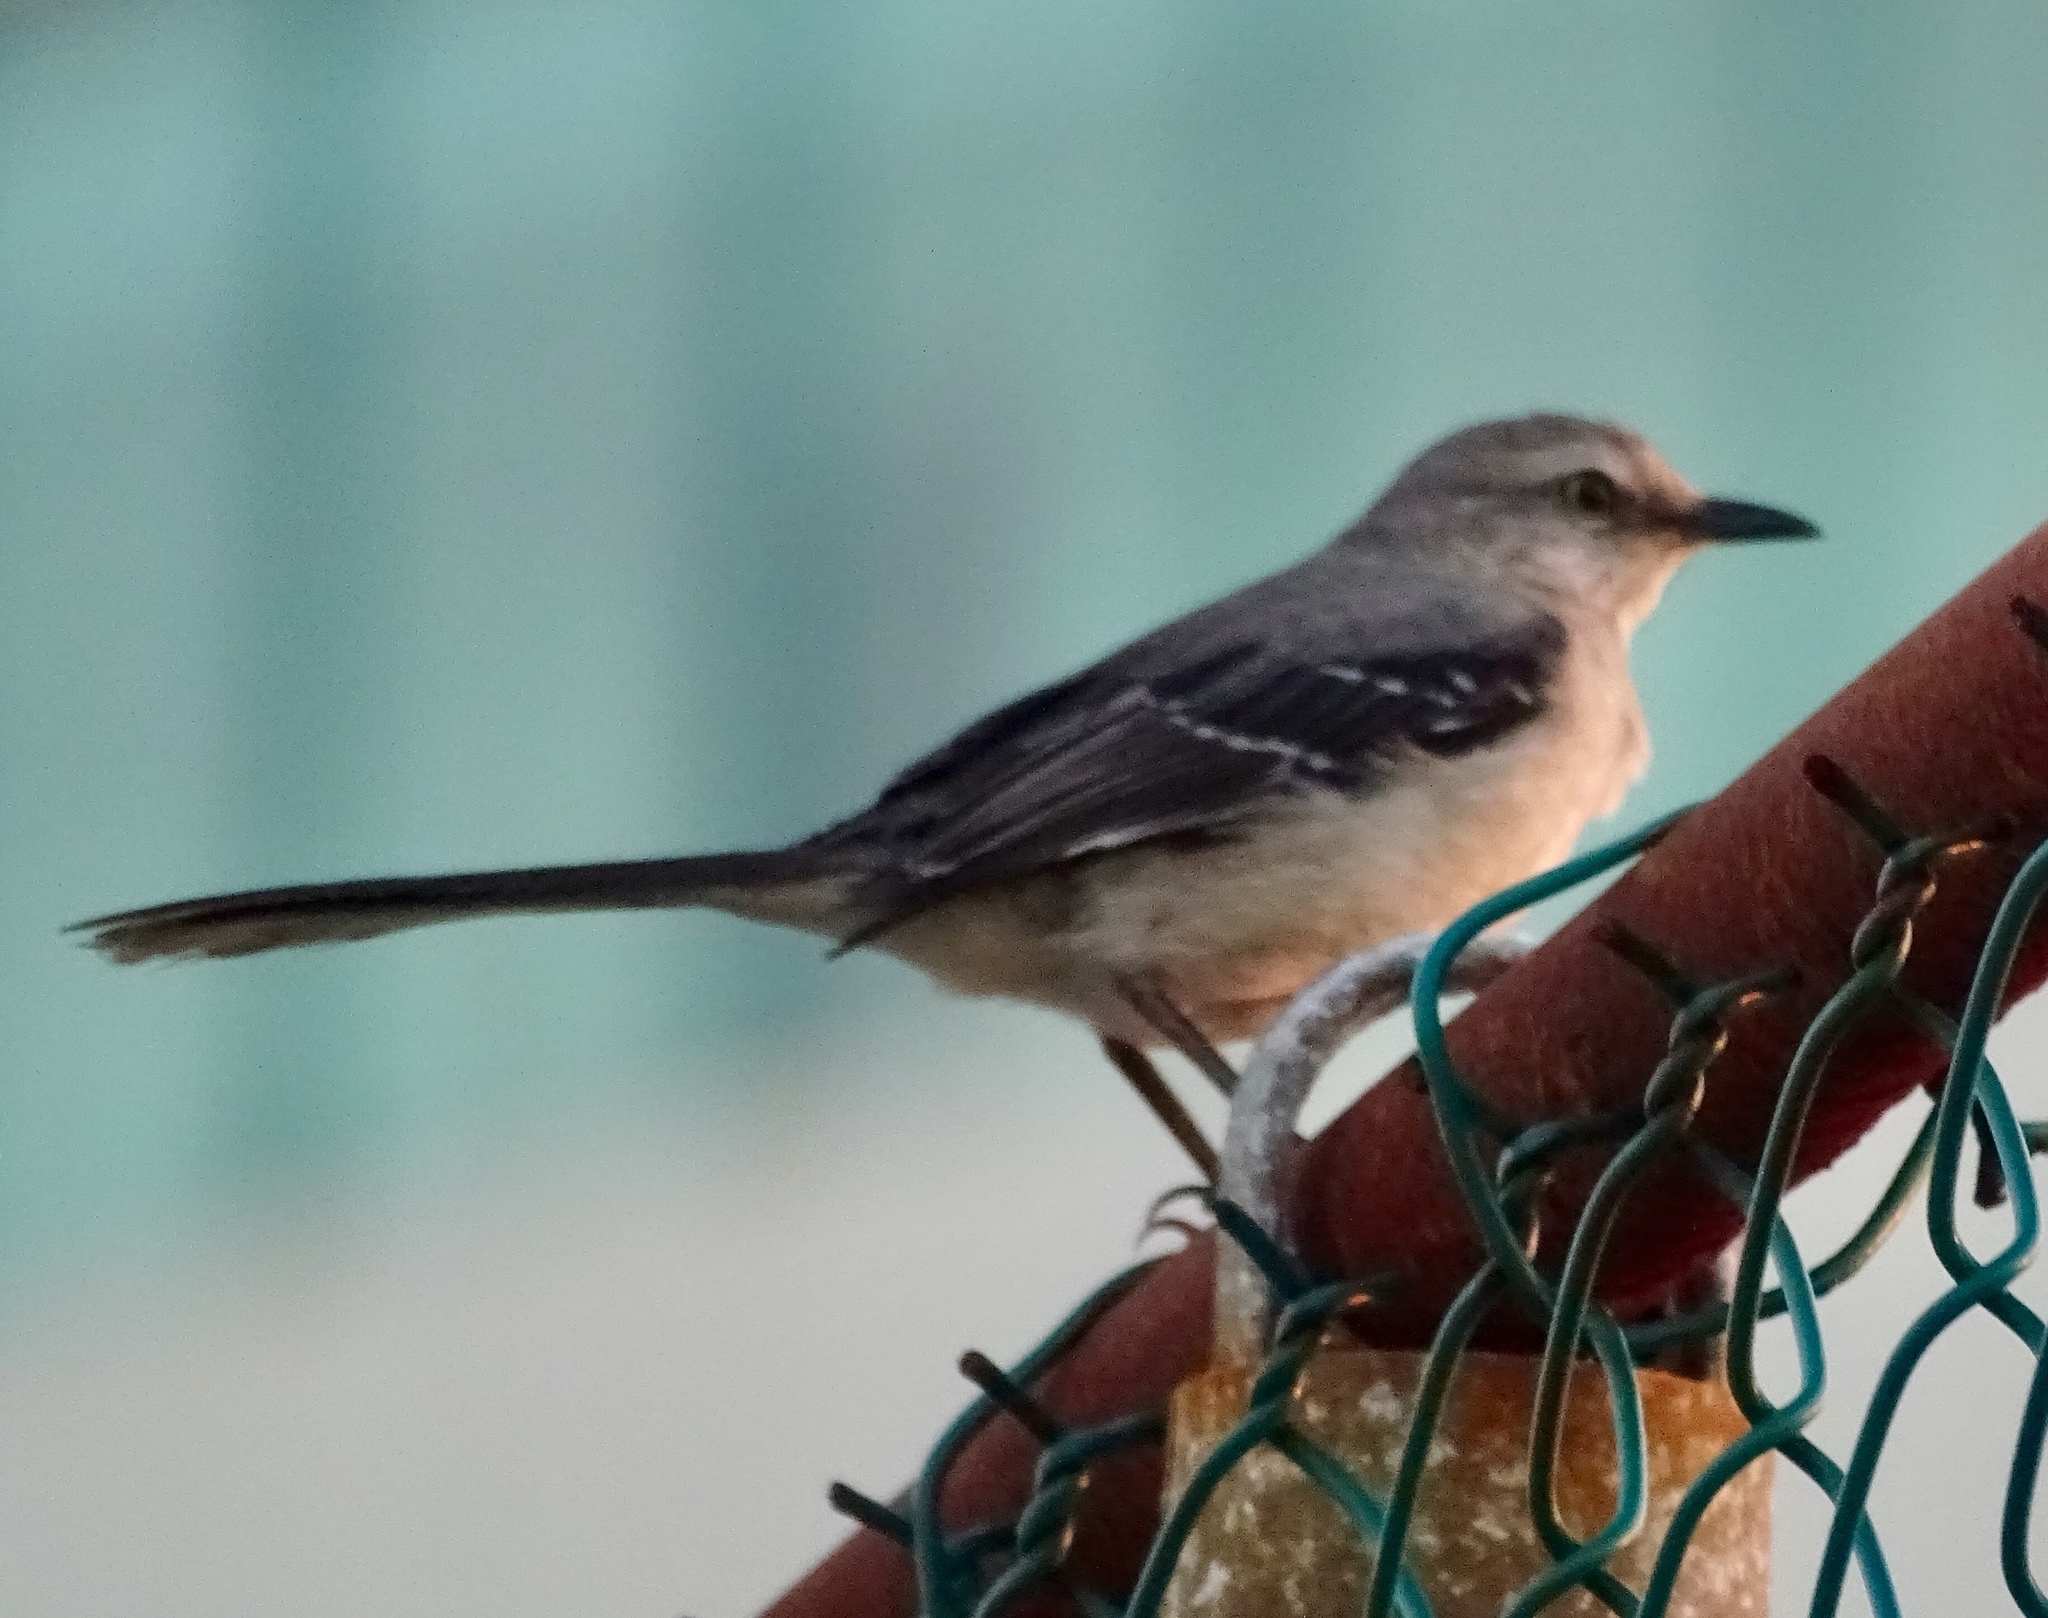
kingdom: Animalia
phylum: Chordata
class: Aves
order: Passeriformes
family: Mimidae
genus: Mimus
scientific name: Mimus gilvus
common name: Tropical mockingbird
